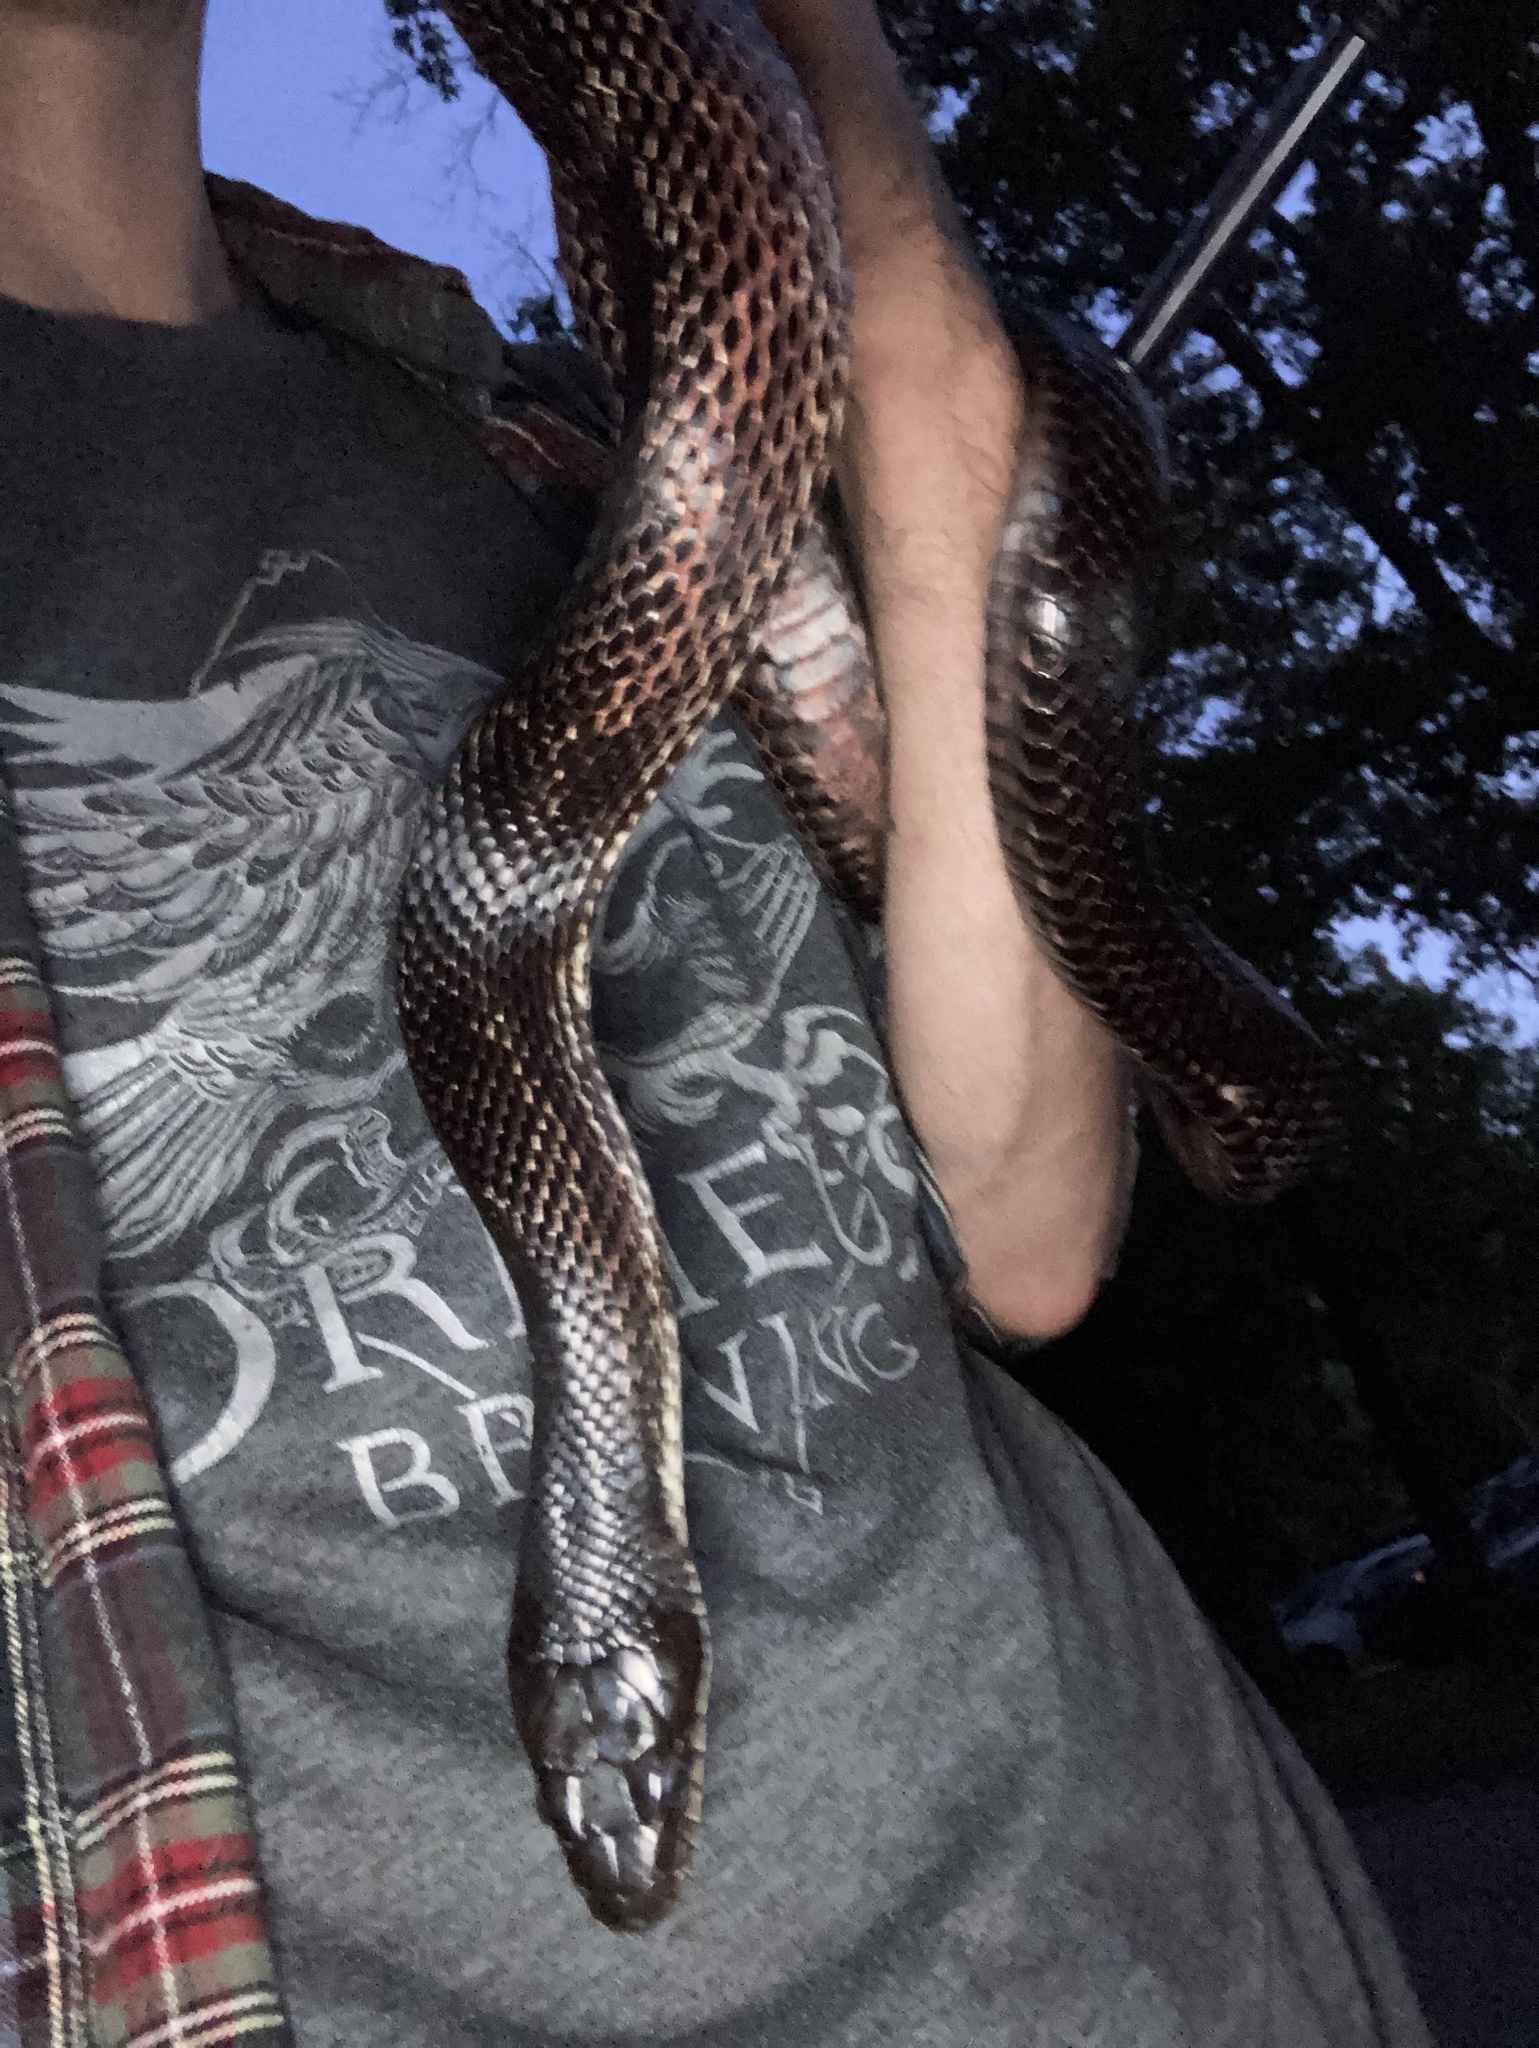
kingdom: Animalia
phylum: Chordata
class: Squamata
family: Colubridae
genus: Pantherophis
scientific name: Pantherophis spiloides
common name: Gray rat snake
